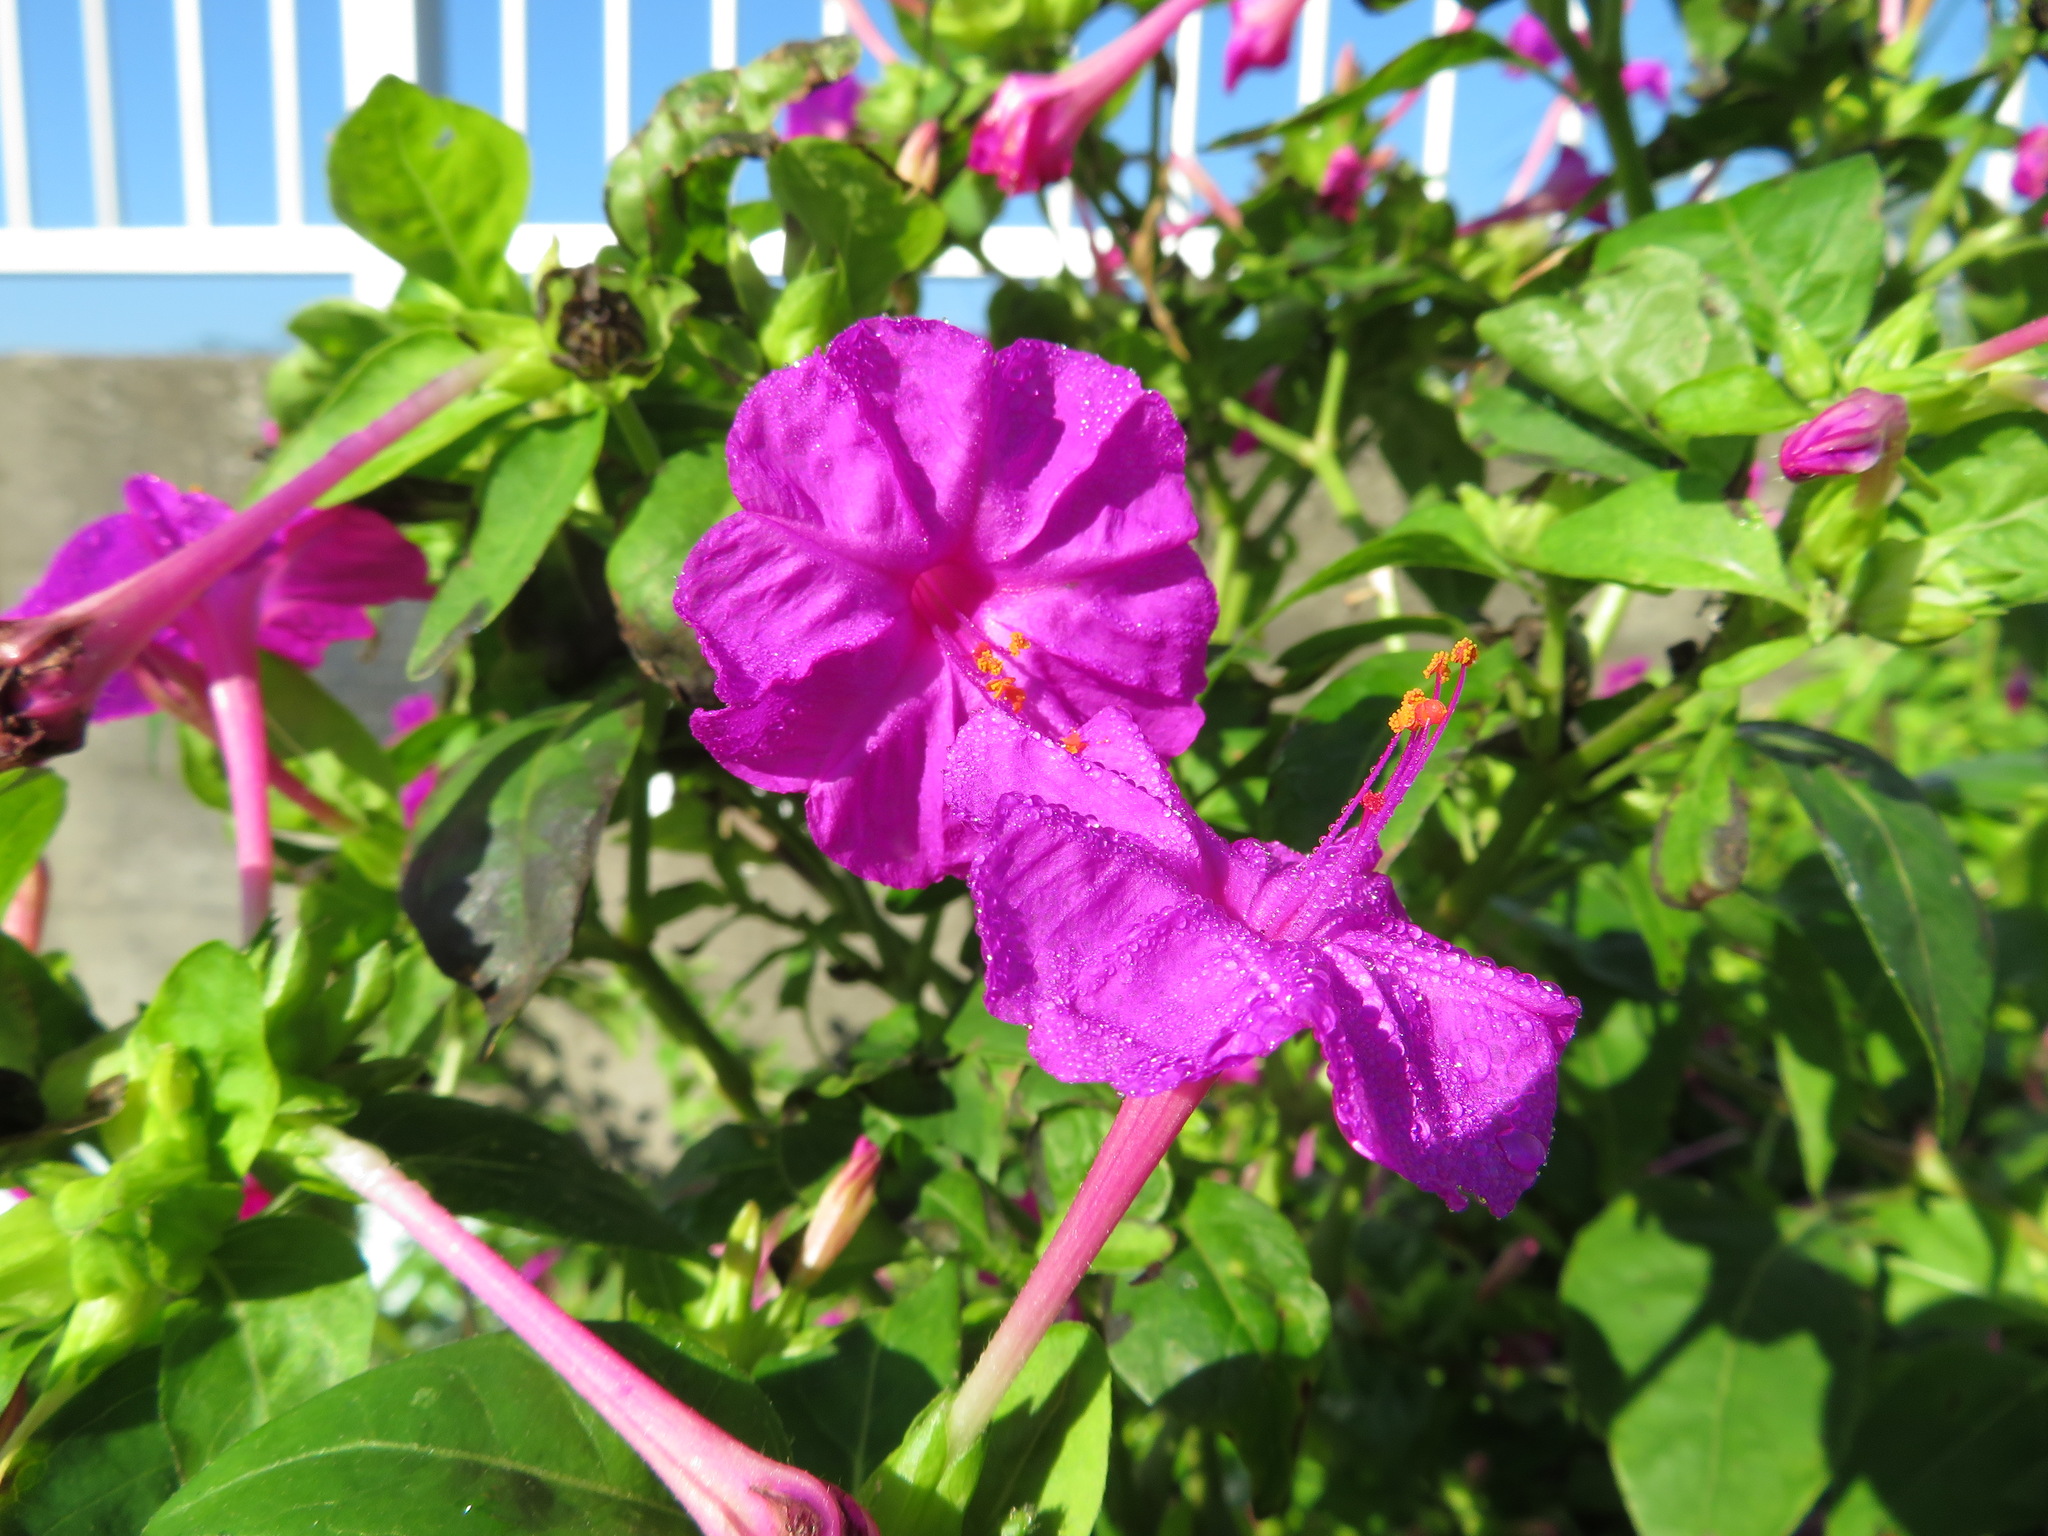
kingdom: Plantae
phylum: Tracheophyta
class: Magnoliopsida
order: Caryophyllales
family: Nyctaginaceae
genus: Mirabilis
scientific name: Mirabilis jalapa
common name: Marvel-of-peru
